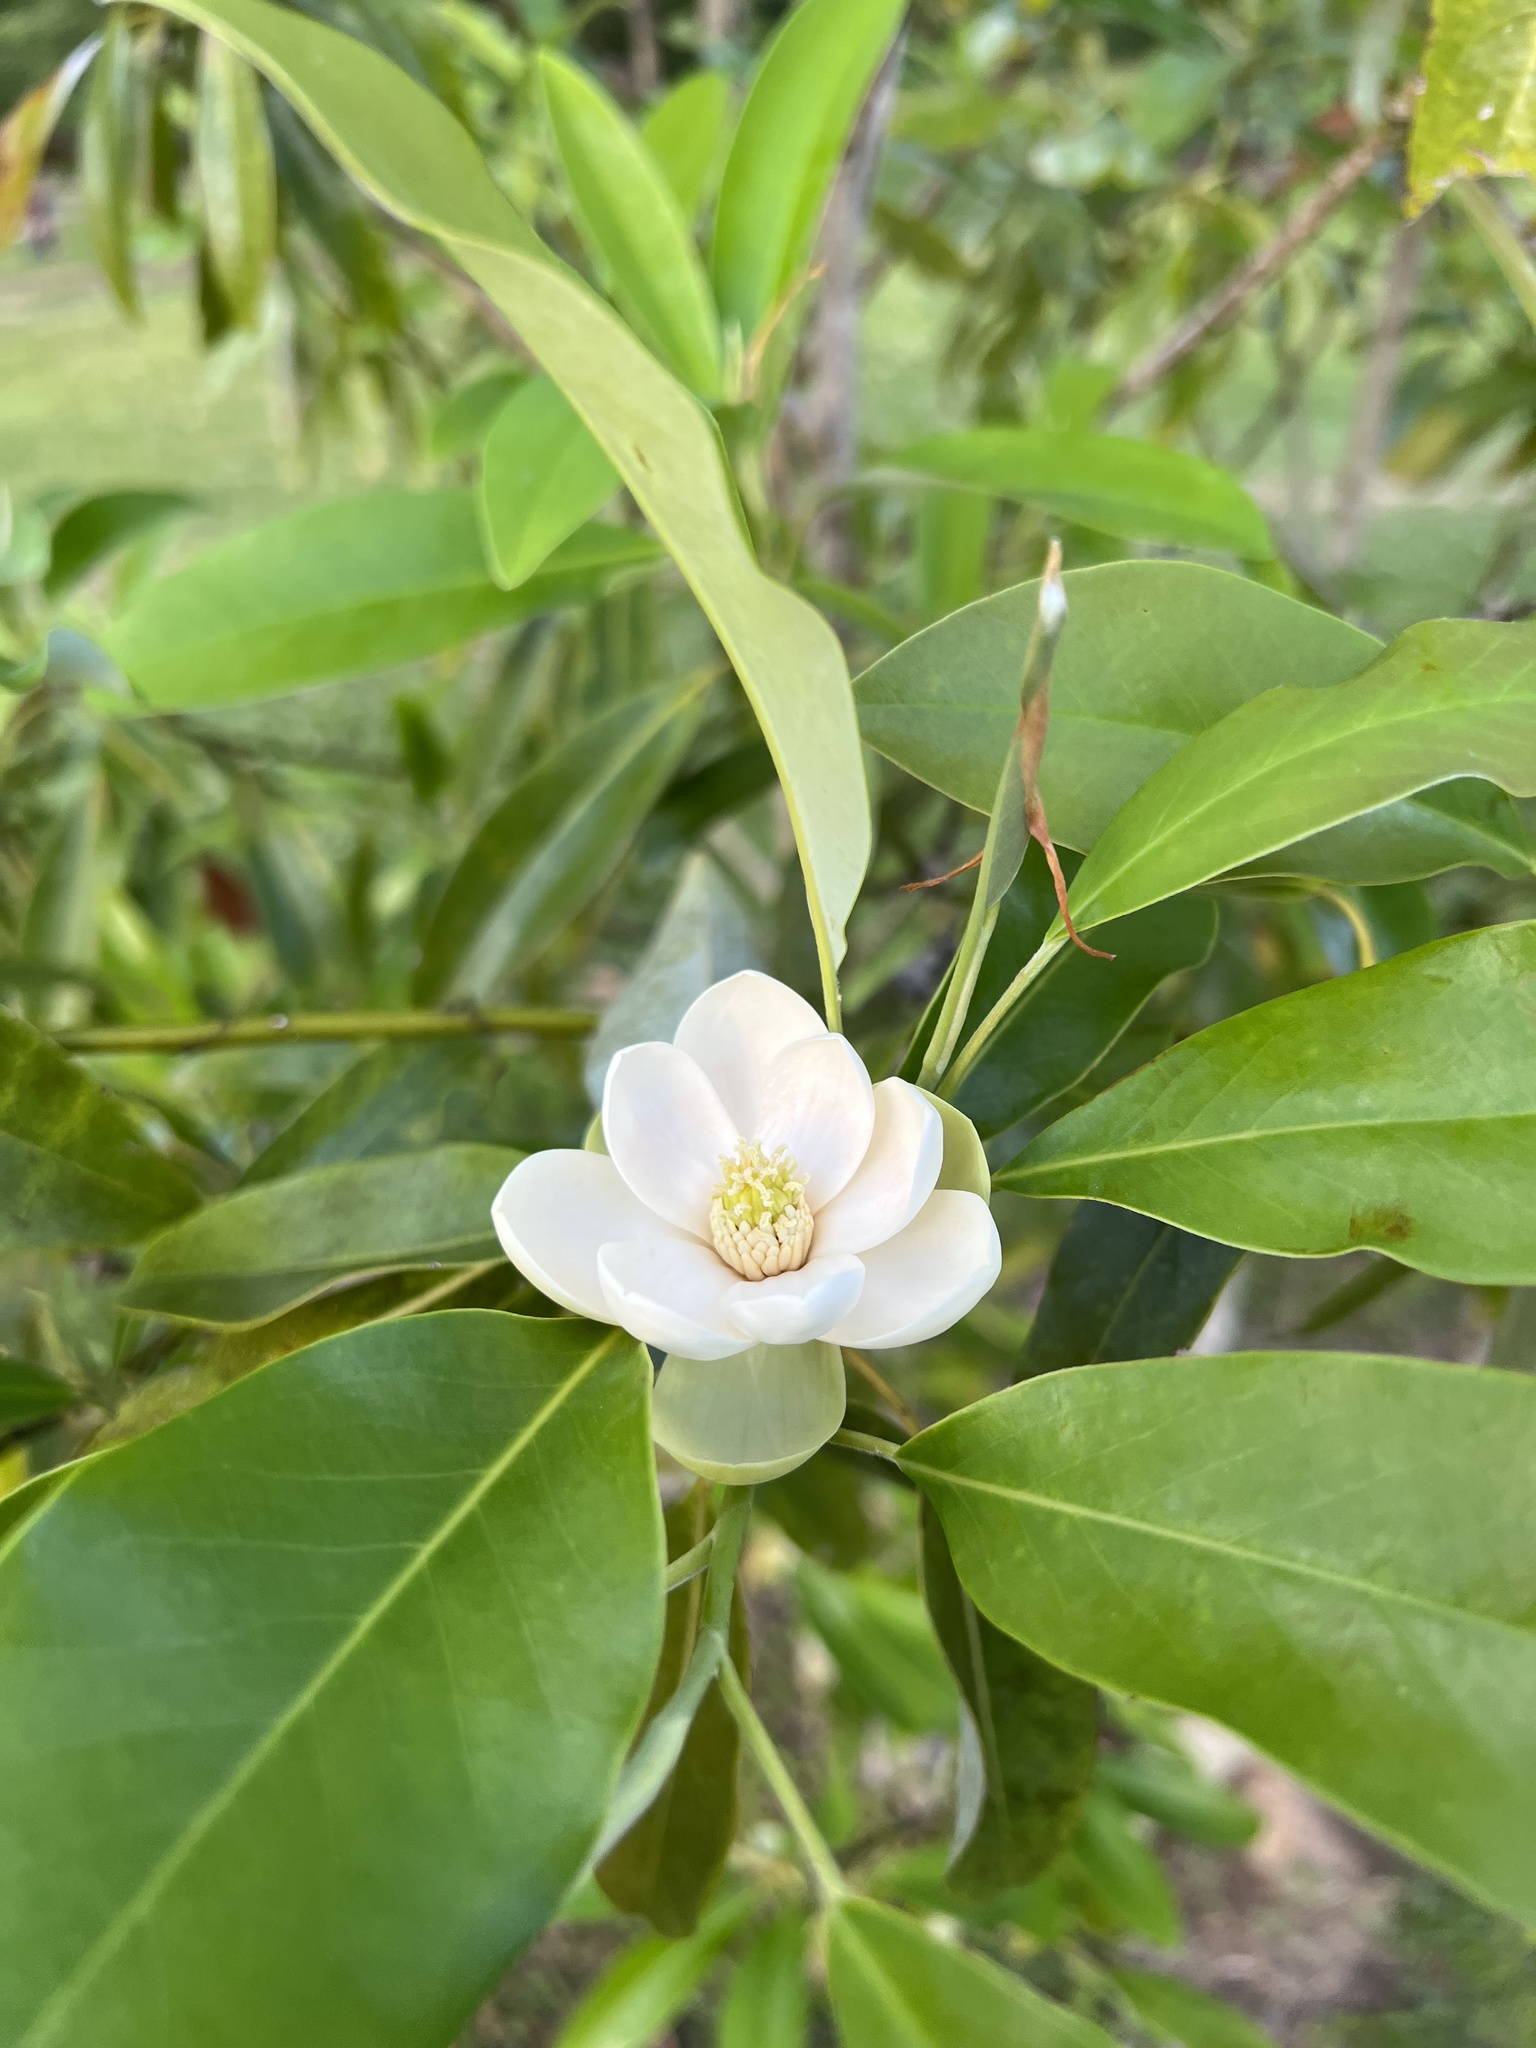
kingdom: Plantae
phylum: Tracheophyta
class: Magnoliopsida
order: Magnoliales
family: Magnoliaceae
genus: Magnolia
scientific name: Magnolia virginiana
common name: Swamp bay
